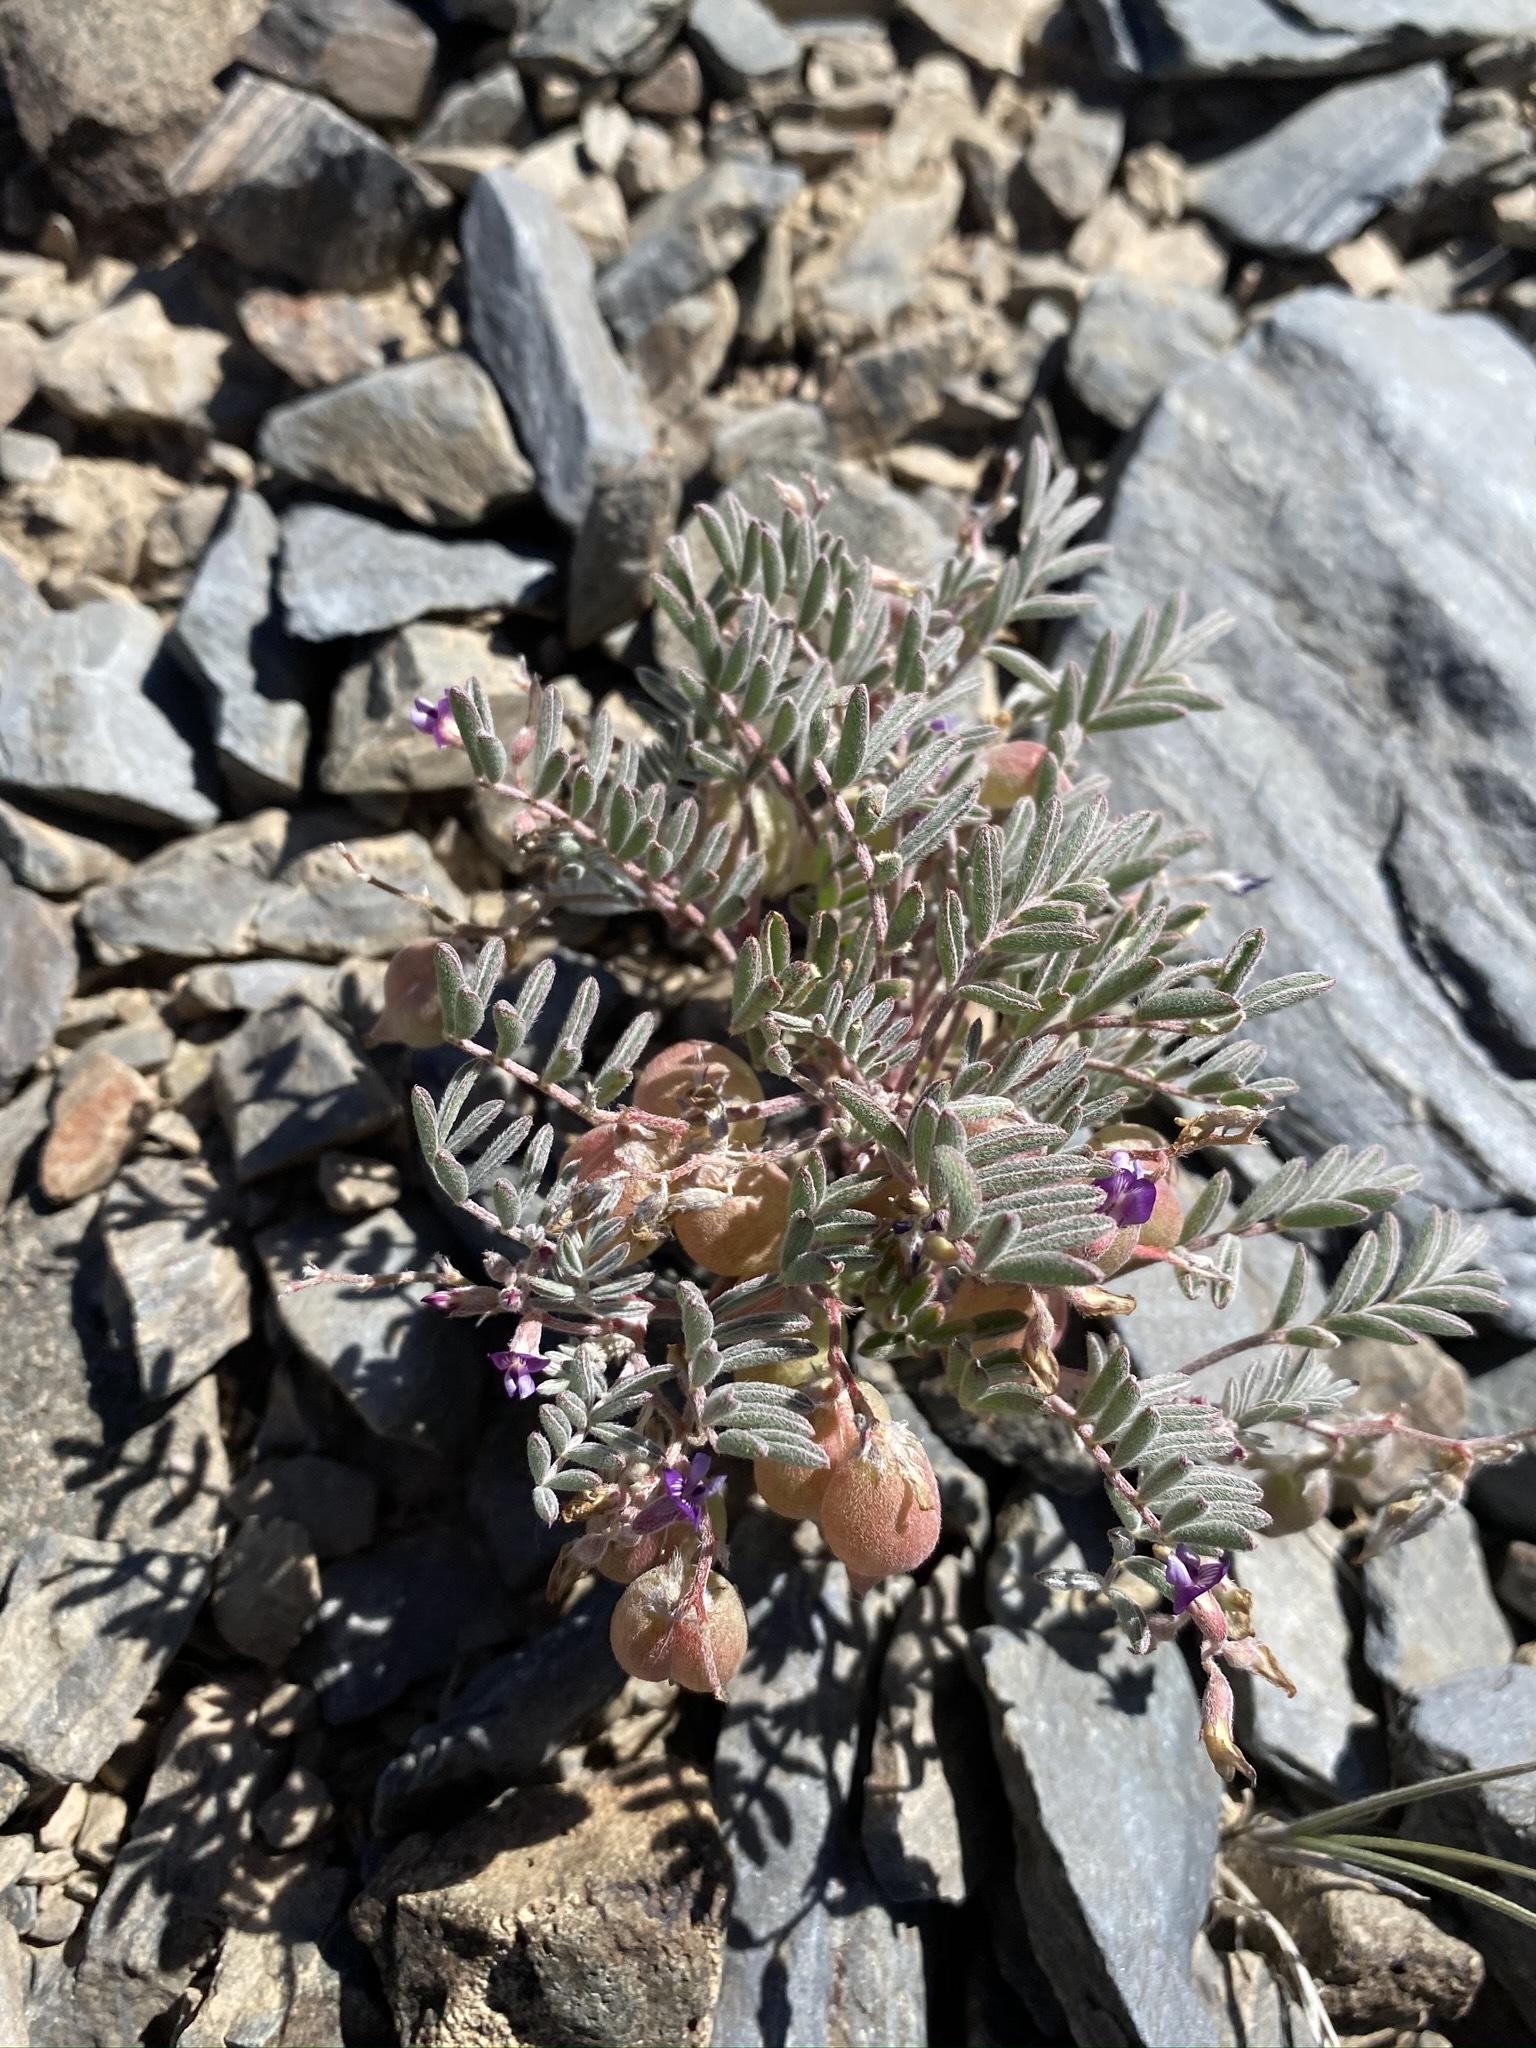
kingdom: Plantae
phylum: Tracheophyta
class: Magnoliopsida
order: Fabales
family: Fabaceae
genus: Astragalus
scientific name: Astragalus gilmanii
